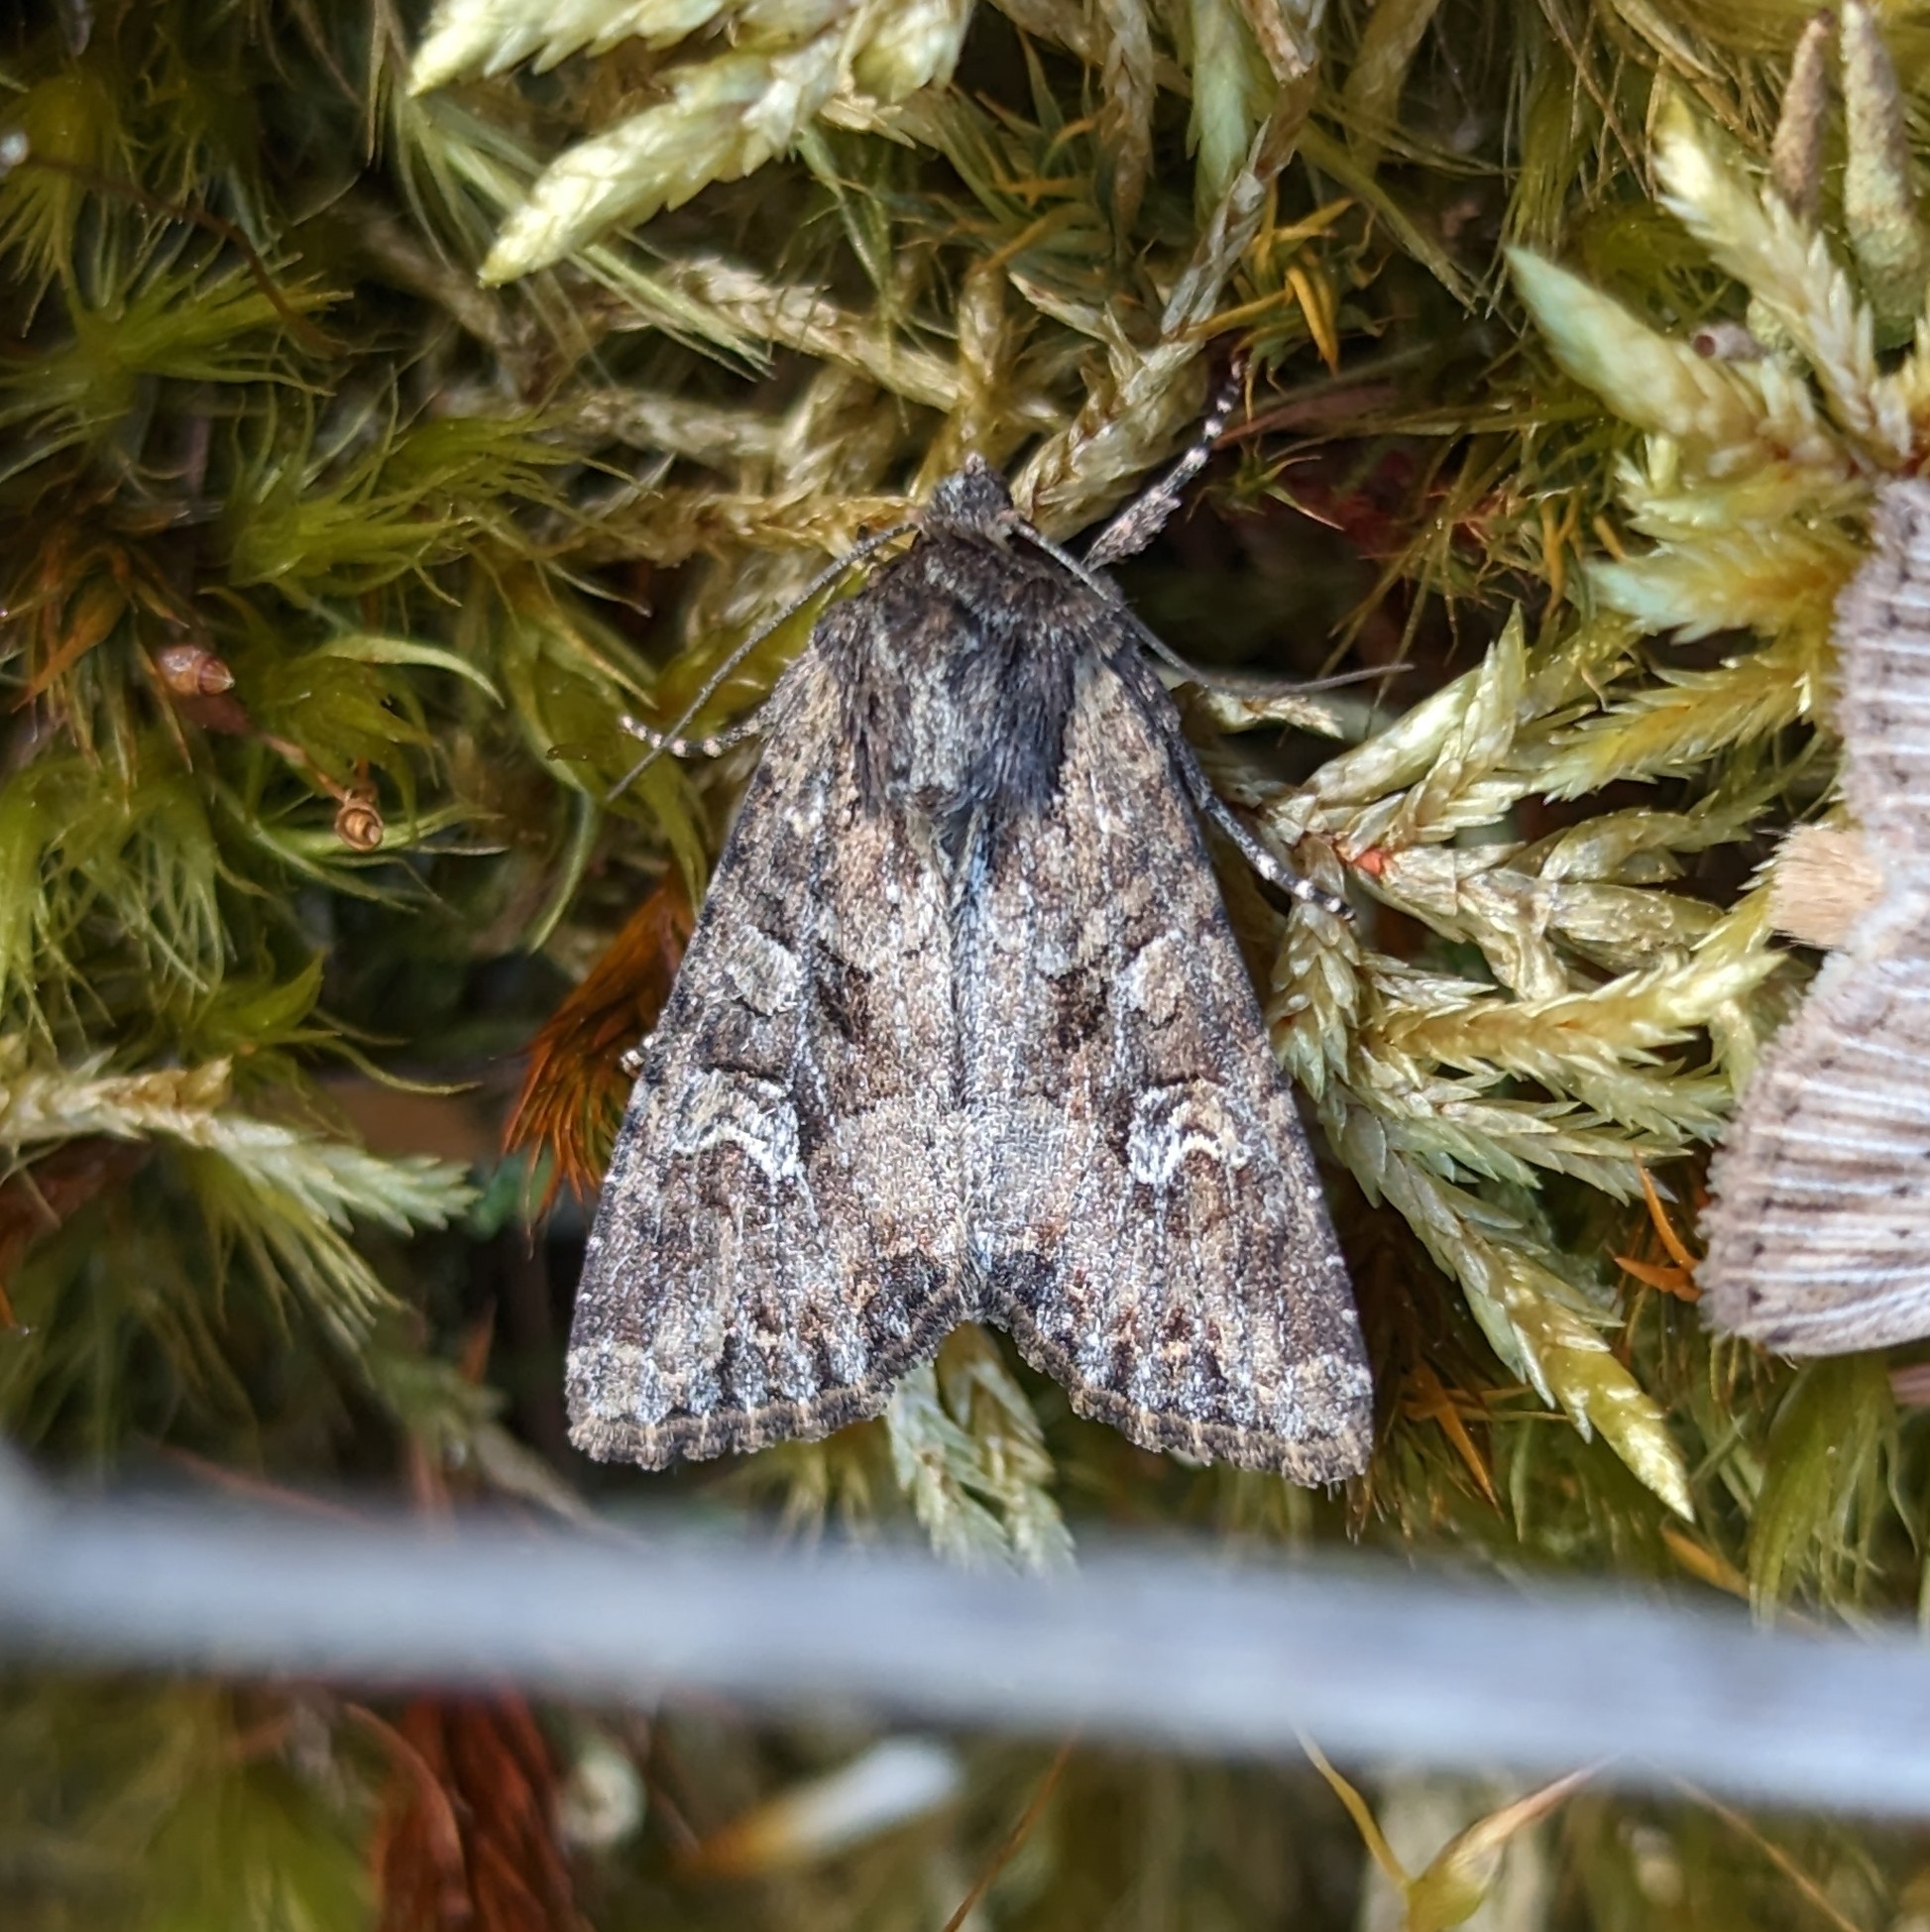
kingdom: Animalia
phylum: Arthropoda
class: Insecta
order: Lepidoptera
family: Noctuidae
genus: Apamea
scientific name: Apamea unanimis
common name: Small clouded brindle
